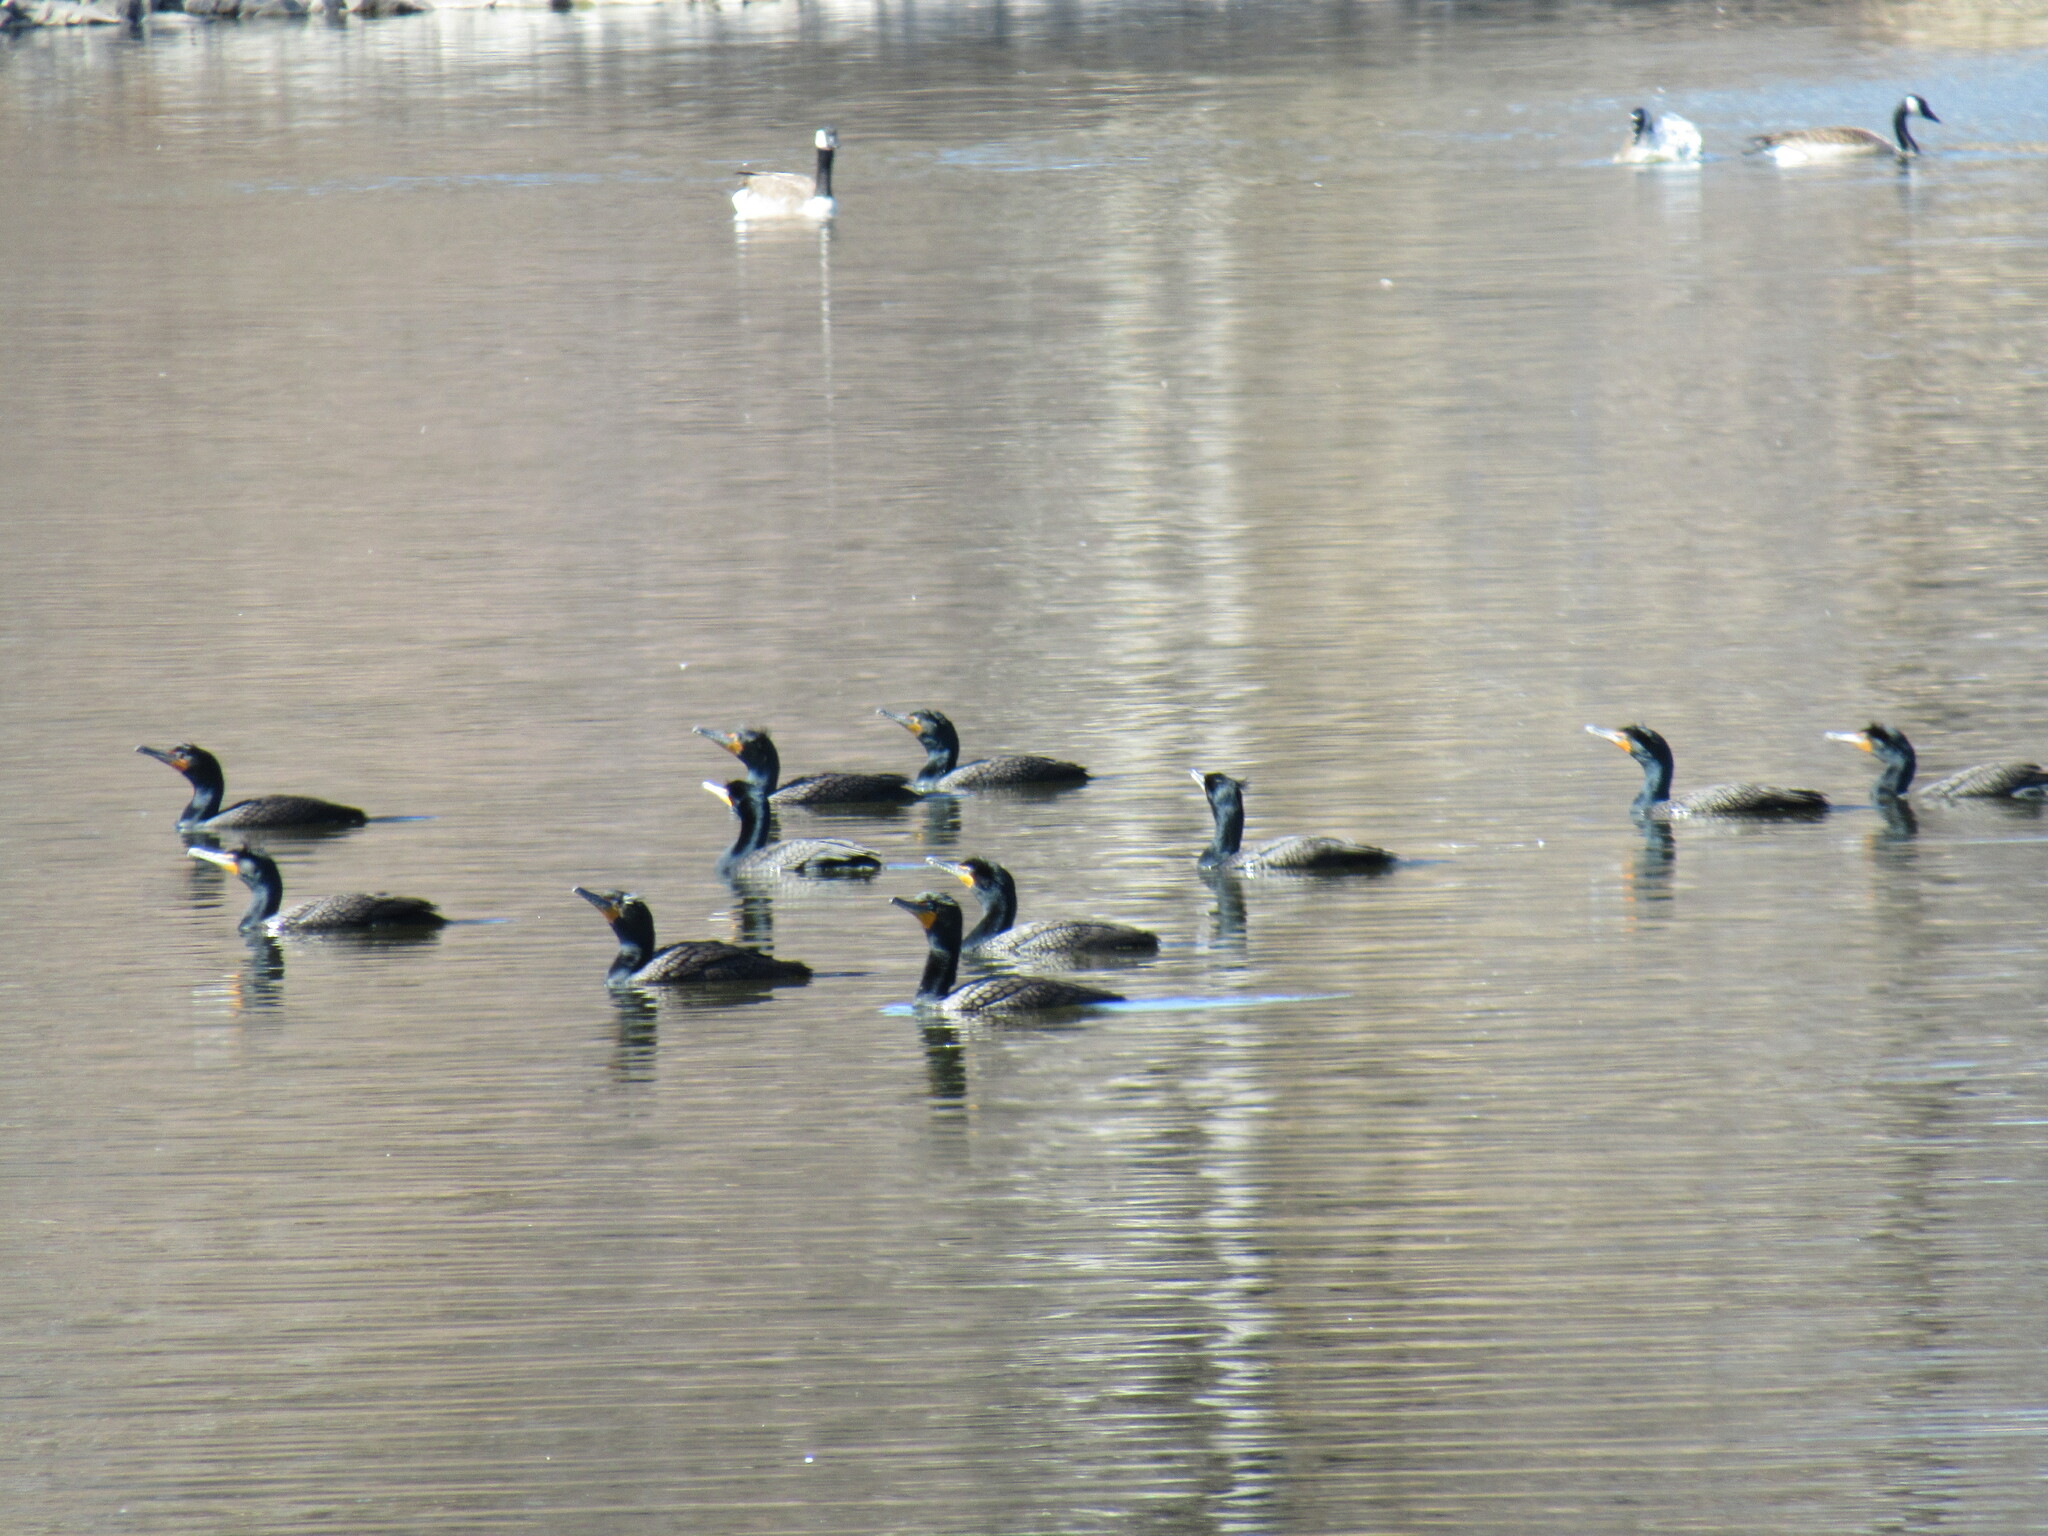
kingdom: Animalia
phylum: Chordata
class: Aves
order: Suliformes
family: Phalacrocoracidae
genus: Phalacrocorax
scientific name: Phalacrocorax auritus
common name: Double-crested cormorant
